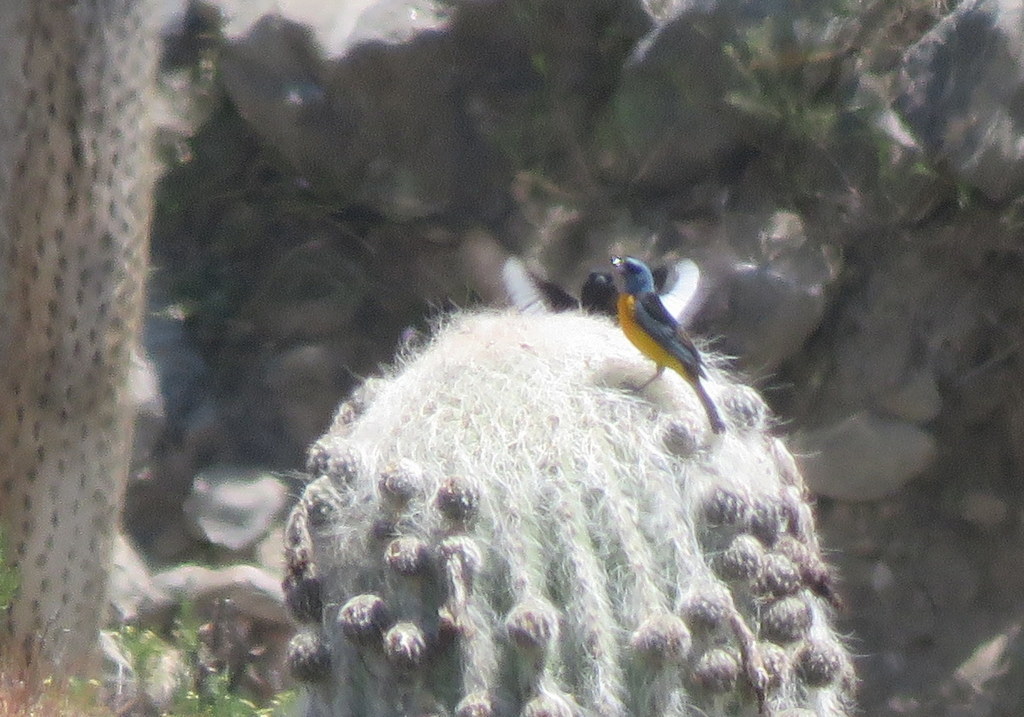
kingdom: Animalia
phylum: Chordata
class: Aves
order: Passeriformes
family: Thraupidae
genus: Rauenia
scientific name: Rauenia bonariensis
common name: Blue-and-yellow tanager
